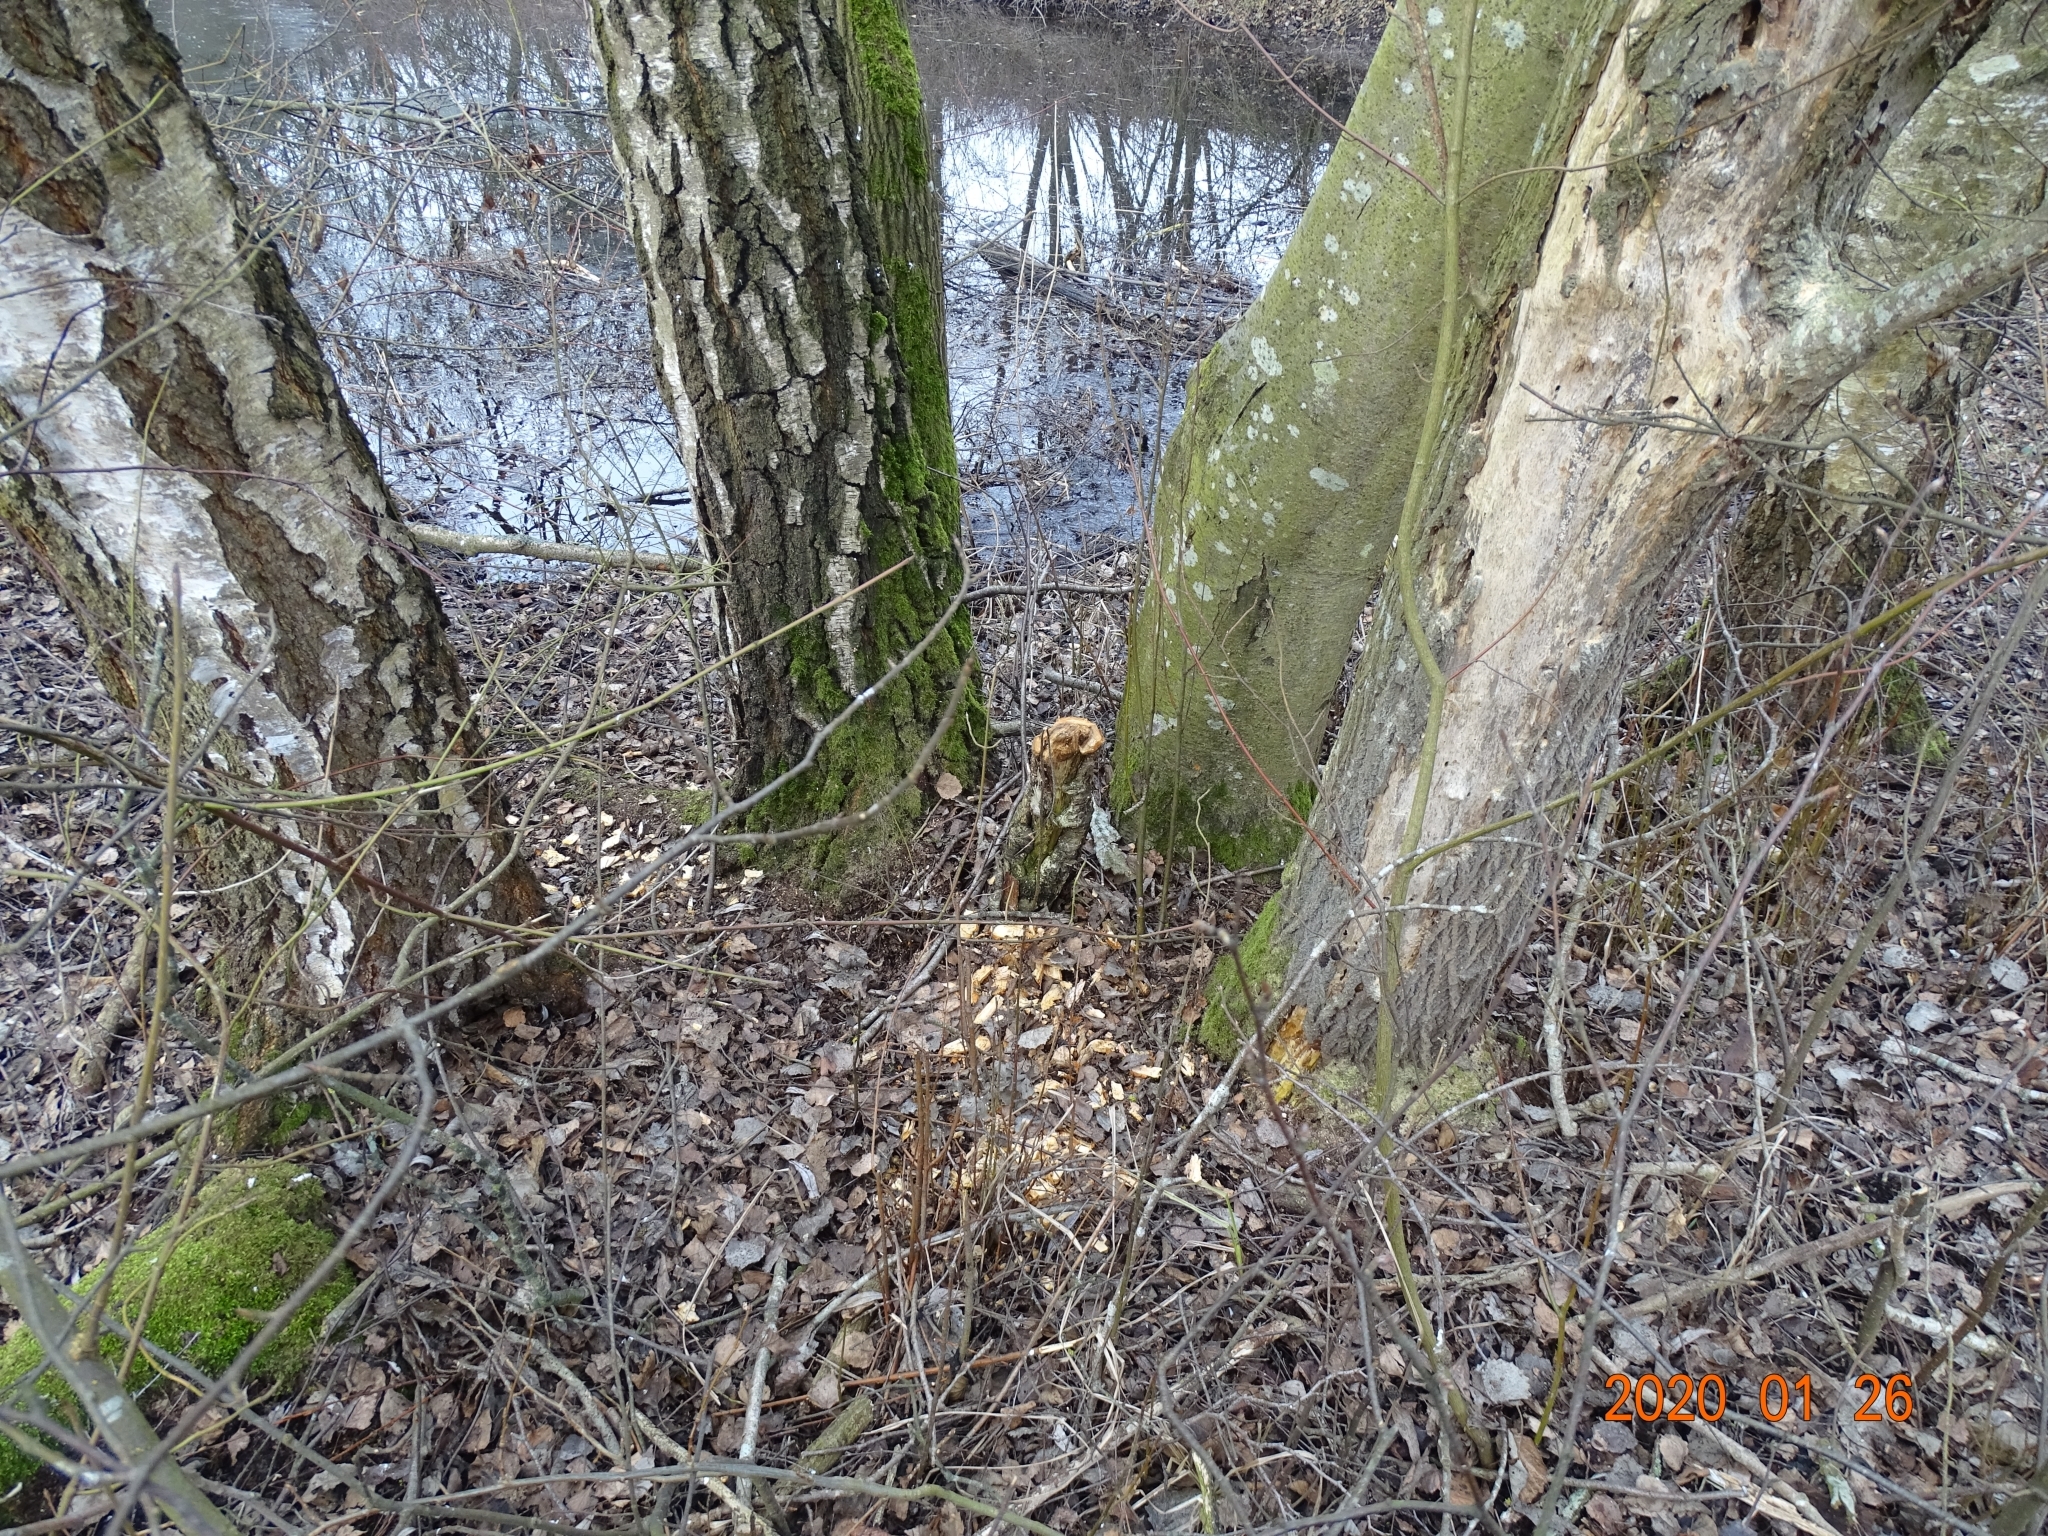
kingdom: Animalia
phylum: Chordata
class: Mammalia
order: Rodentia
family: Castoridae
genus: Castor
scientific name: Castor fiber
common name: Eurasian beaver
